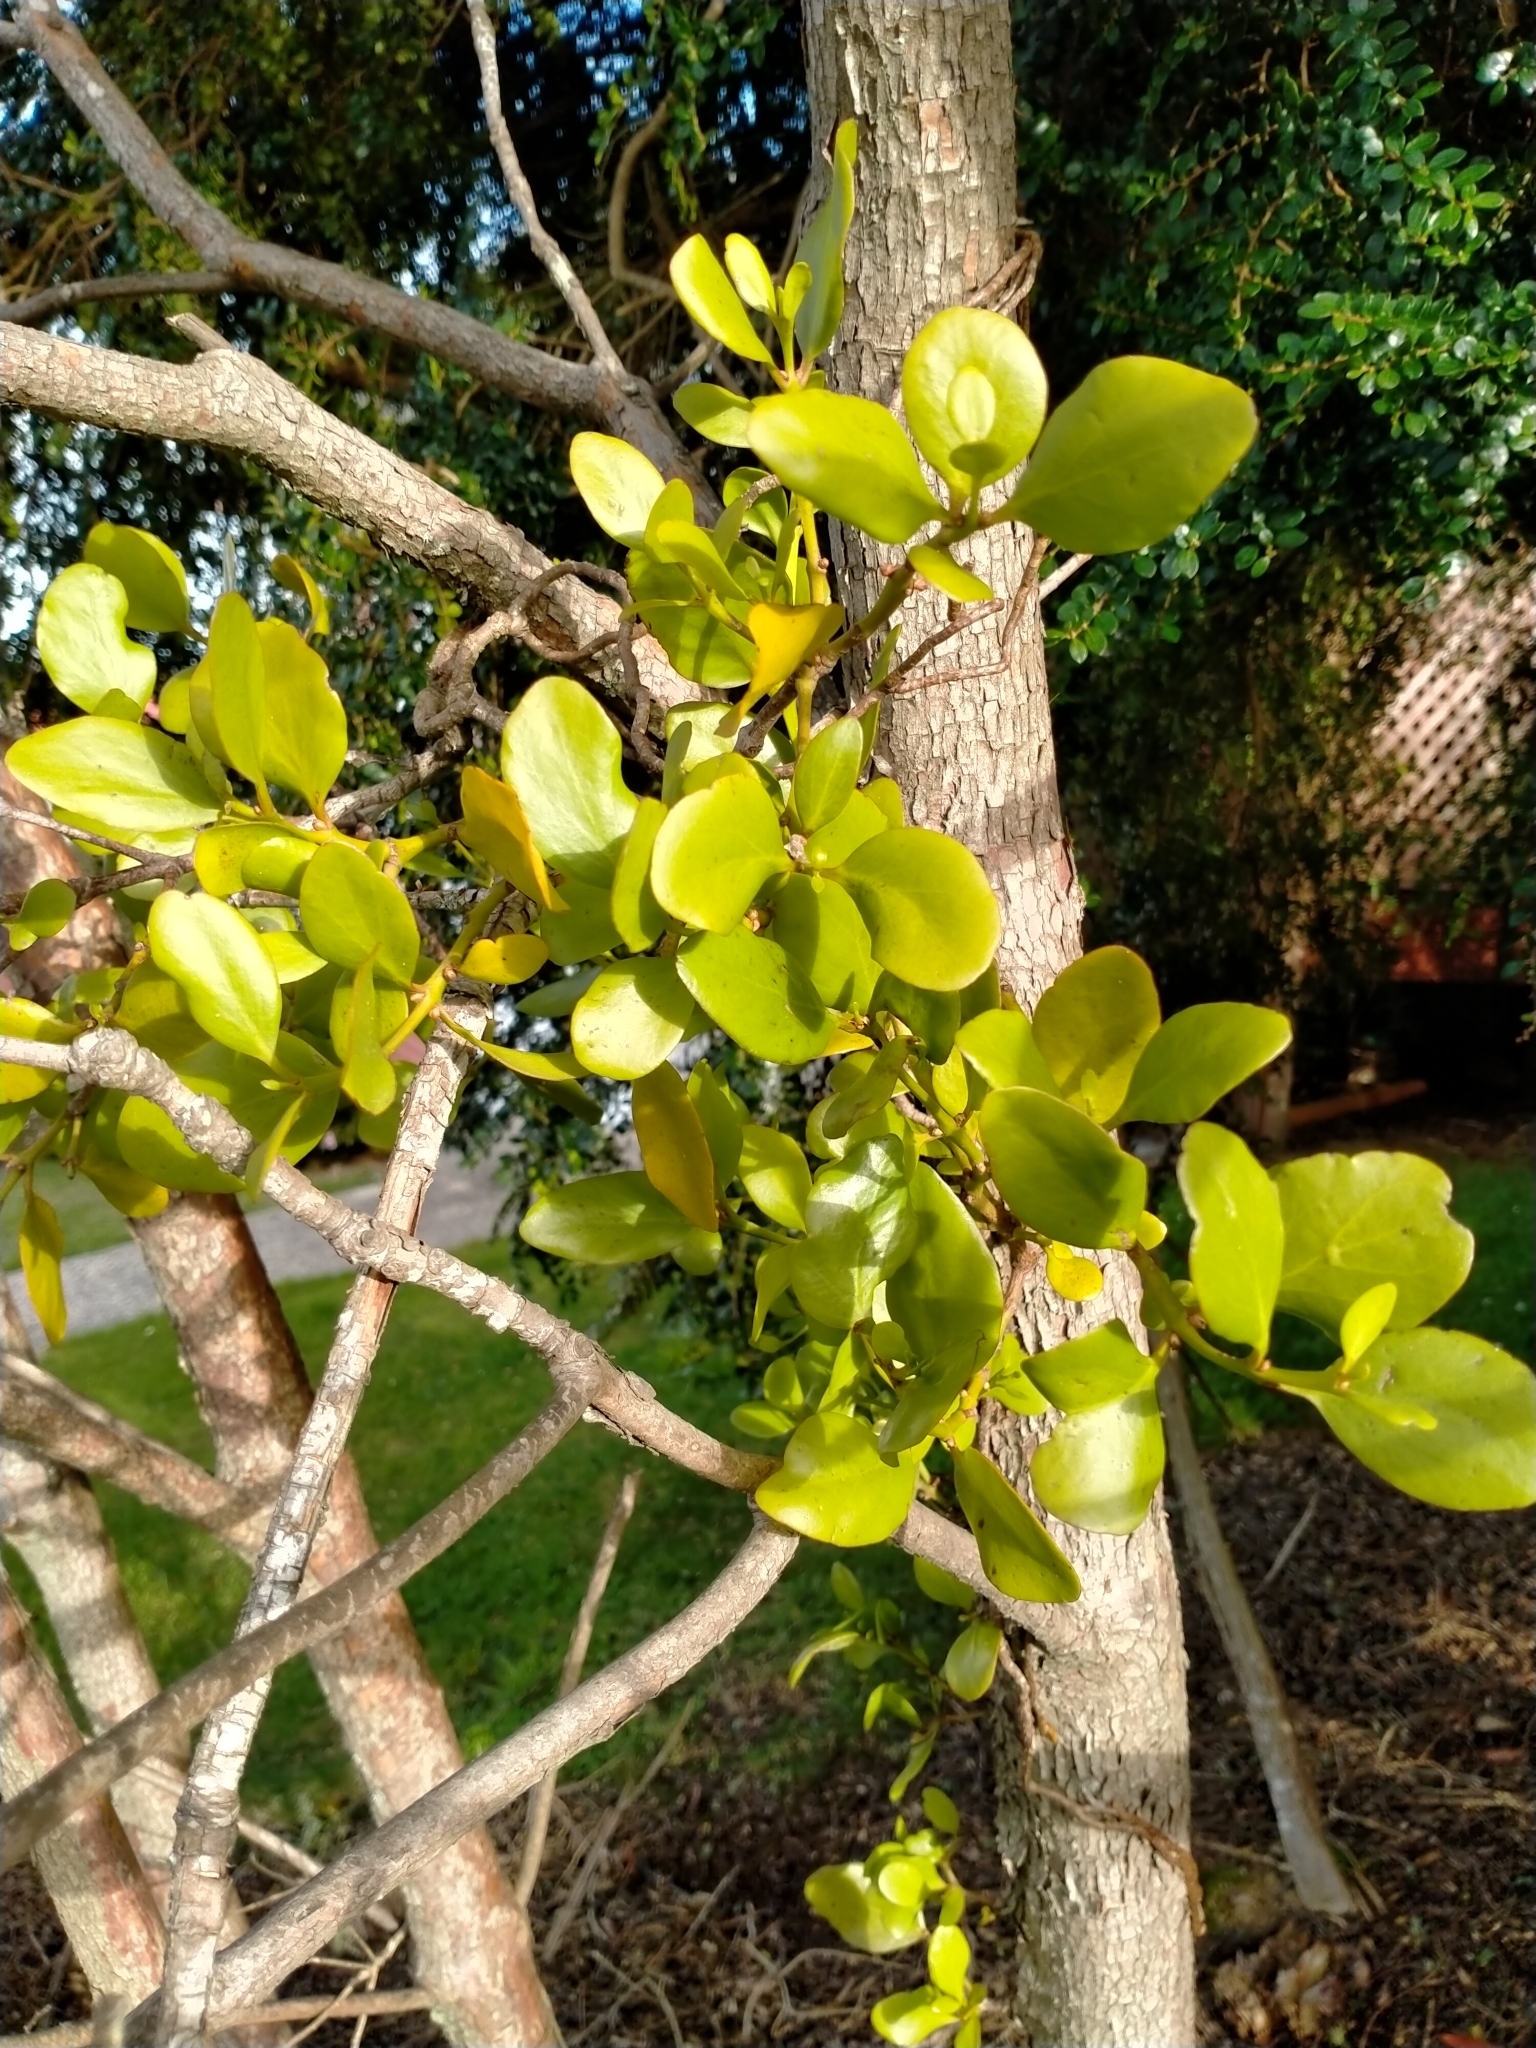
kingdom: Plantae
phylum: Tracheophyta
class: Magnoliopsida
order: Santalales
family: Loranthaceae
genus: Ileostylus
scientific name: Ileostylus micranthus
